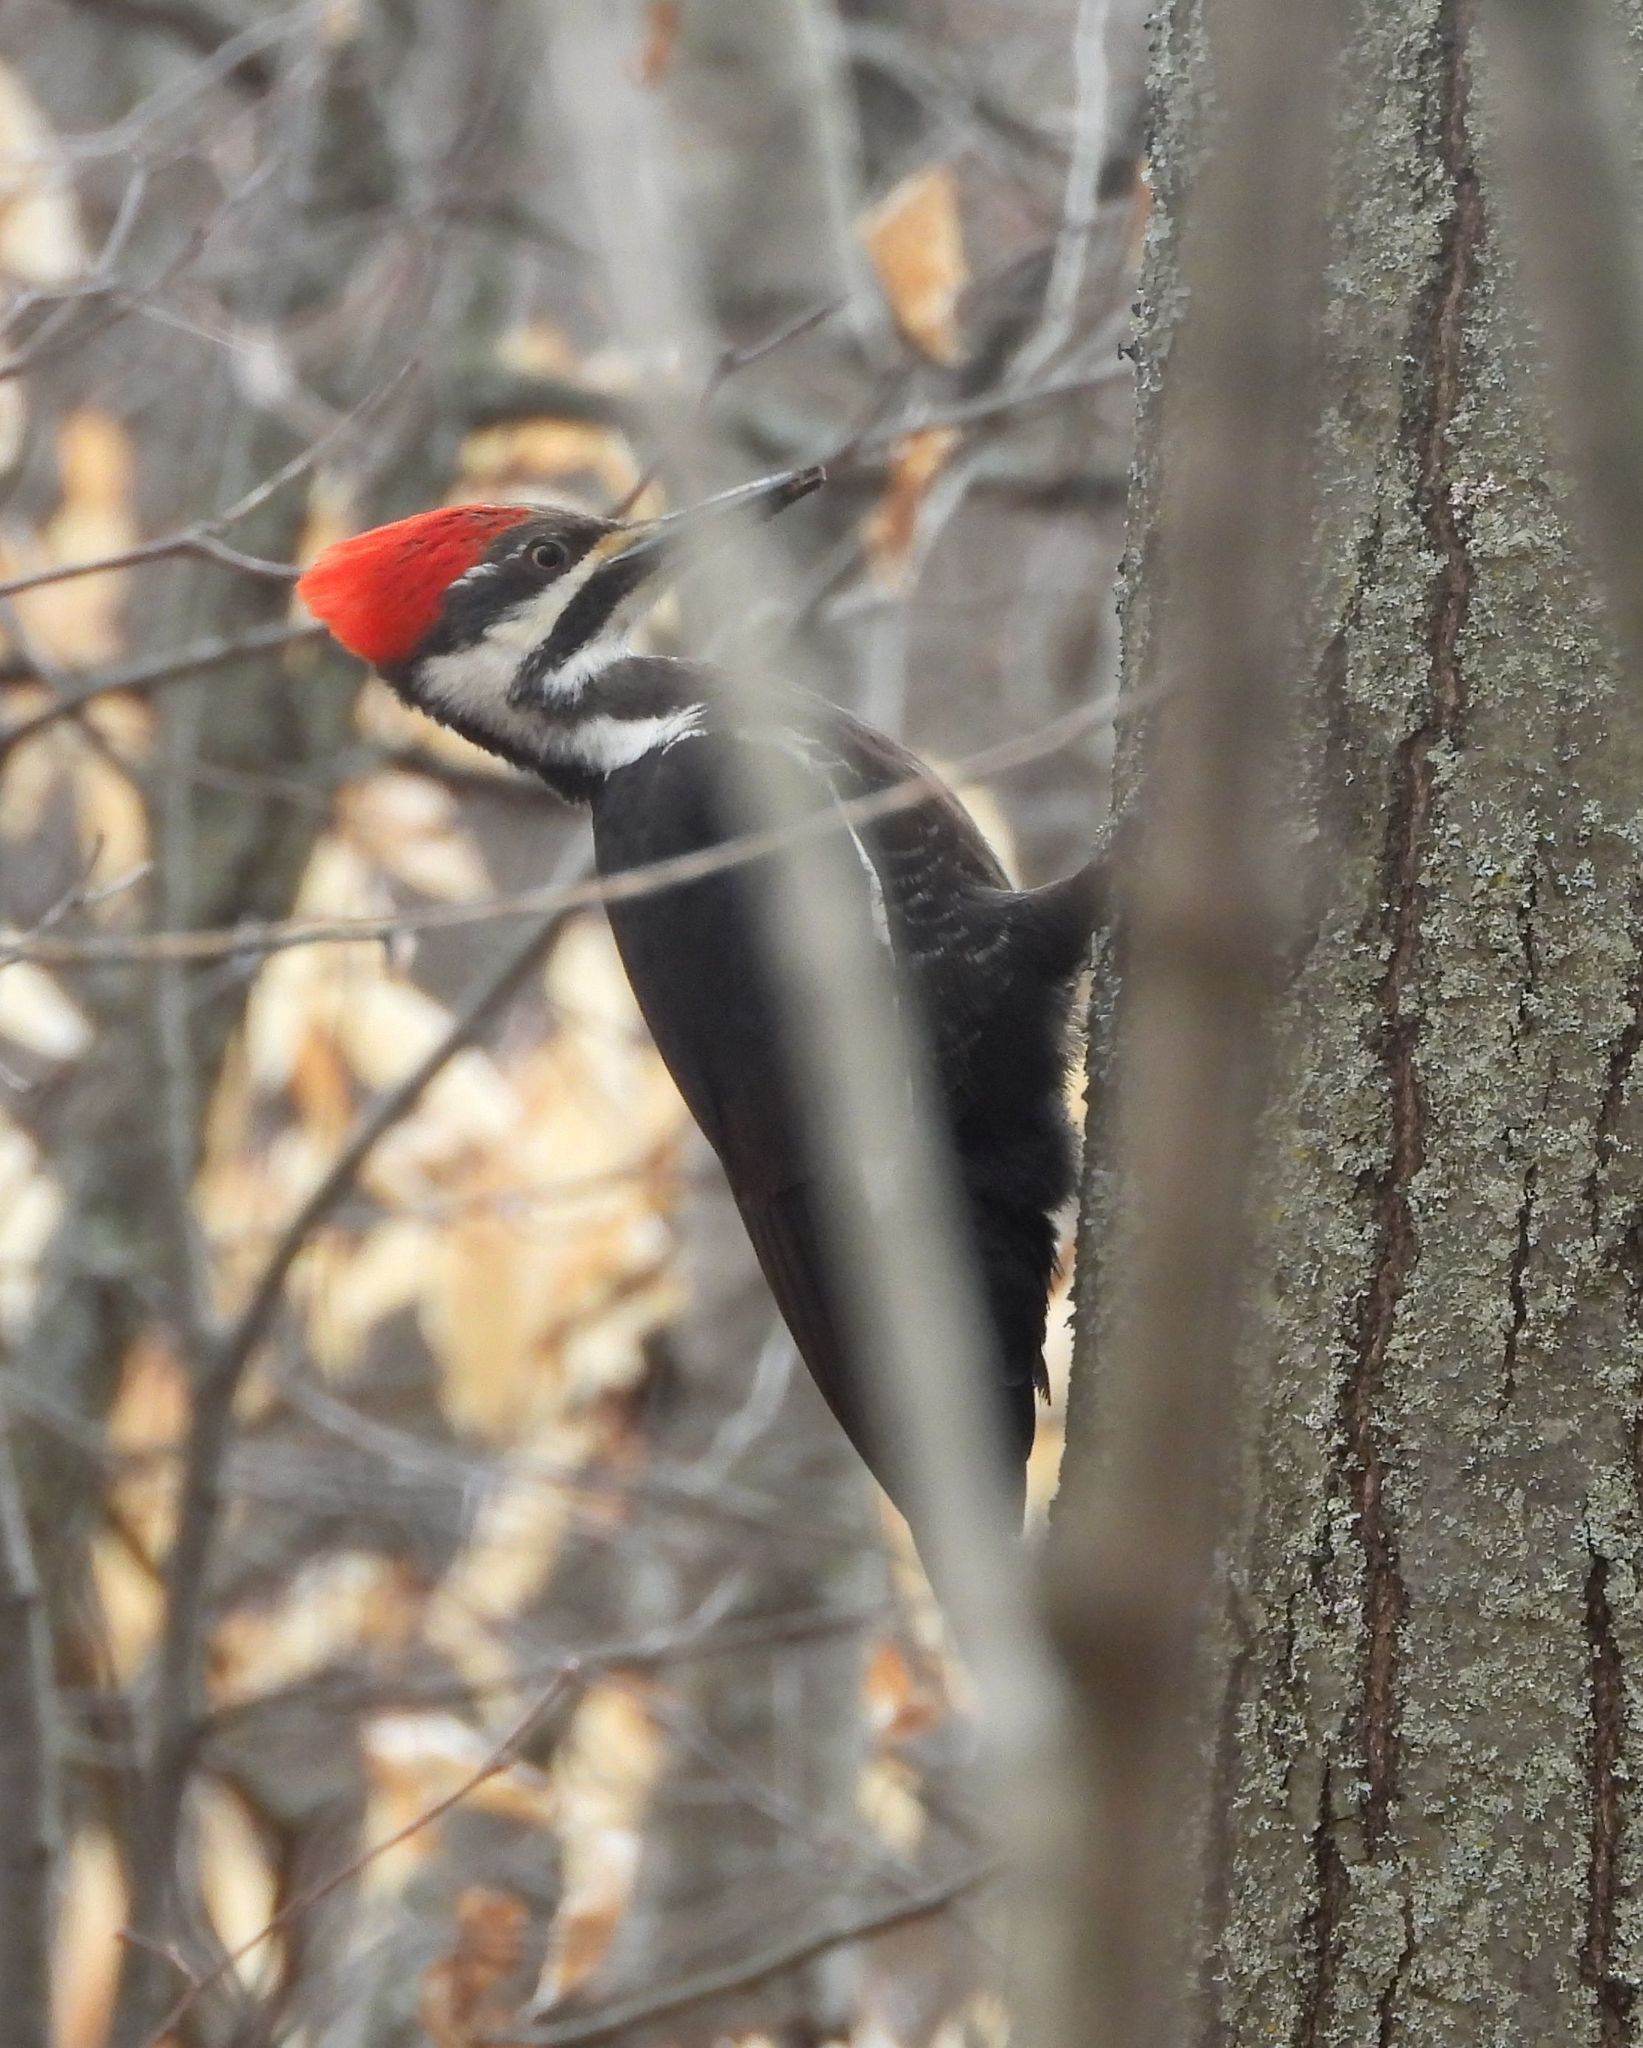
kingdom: Animalia
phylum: Chordata
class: Aves
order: Piciformes
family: Picidae
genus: Dryocopus
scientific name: Dryocopus pileatus
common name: Pileated woodpecker
